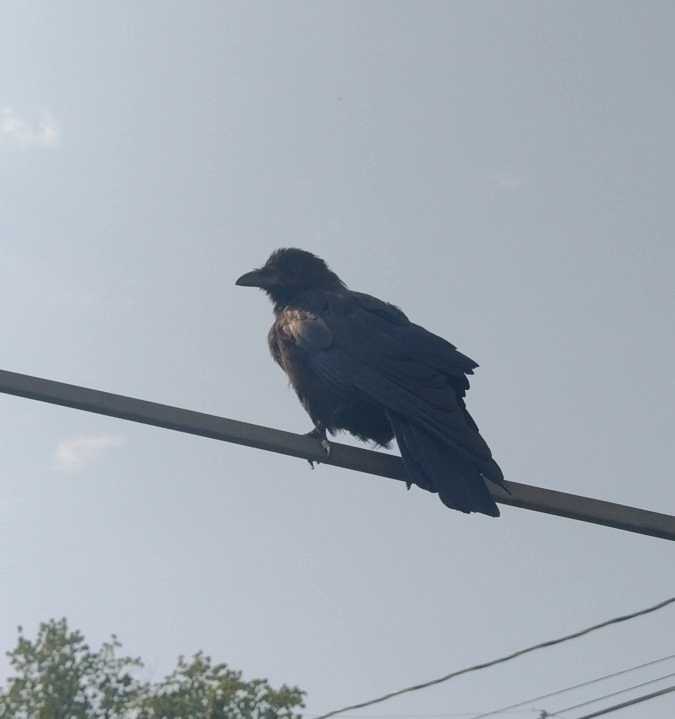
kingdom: Animalia
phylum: Chordata
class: Aves
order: Passeriformes
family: Corvidae
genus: Corvus
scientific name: Corvus brachyrhynchos
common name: American crow
